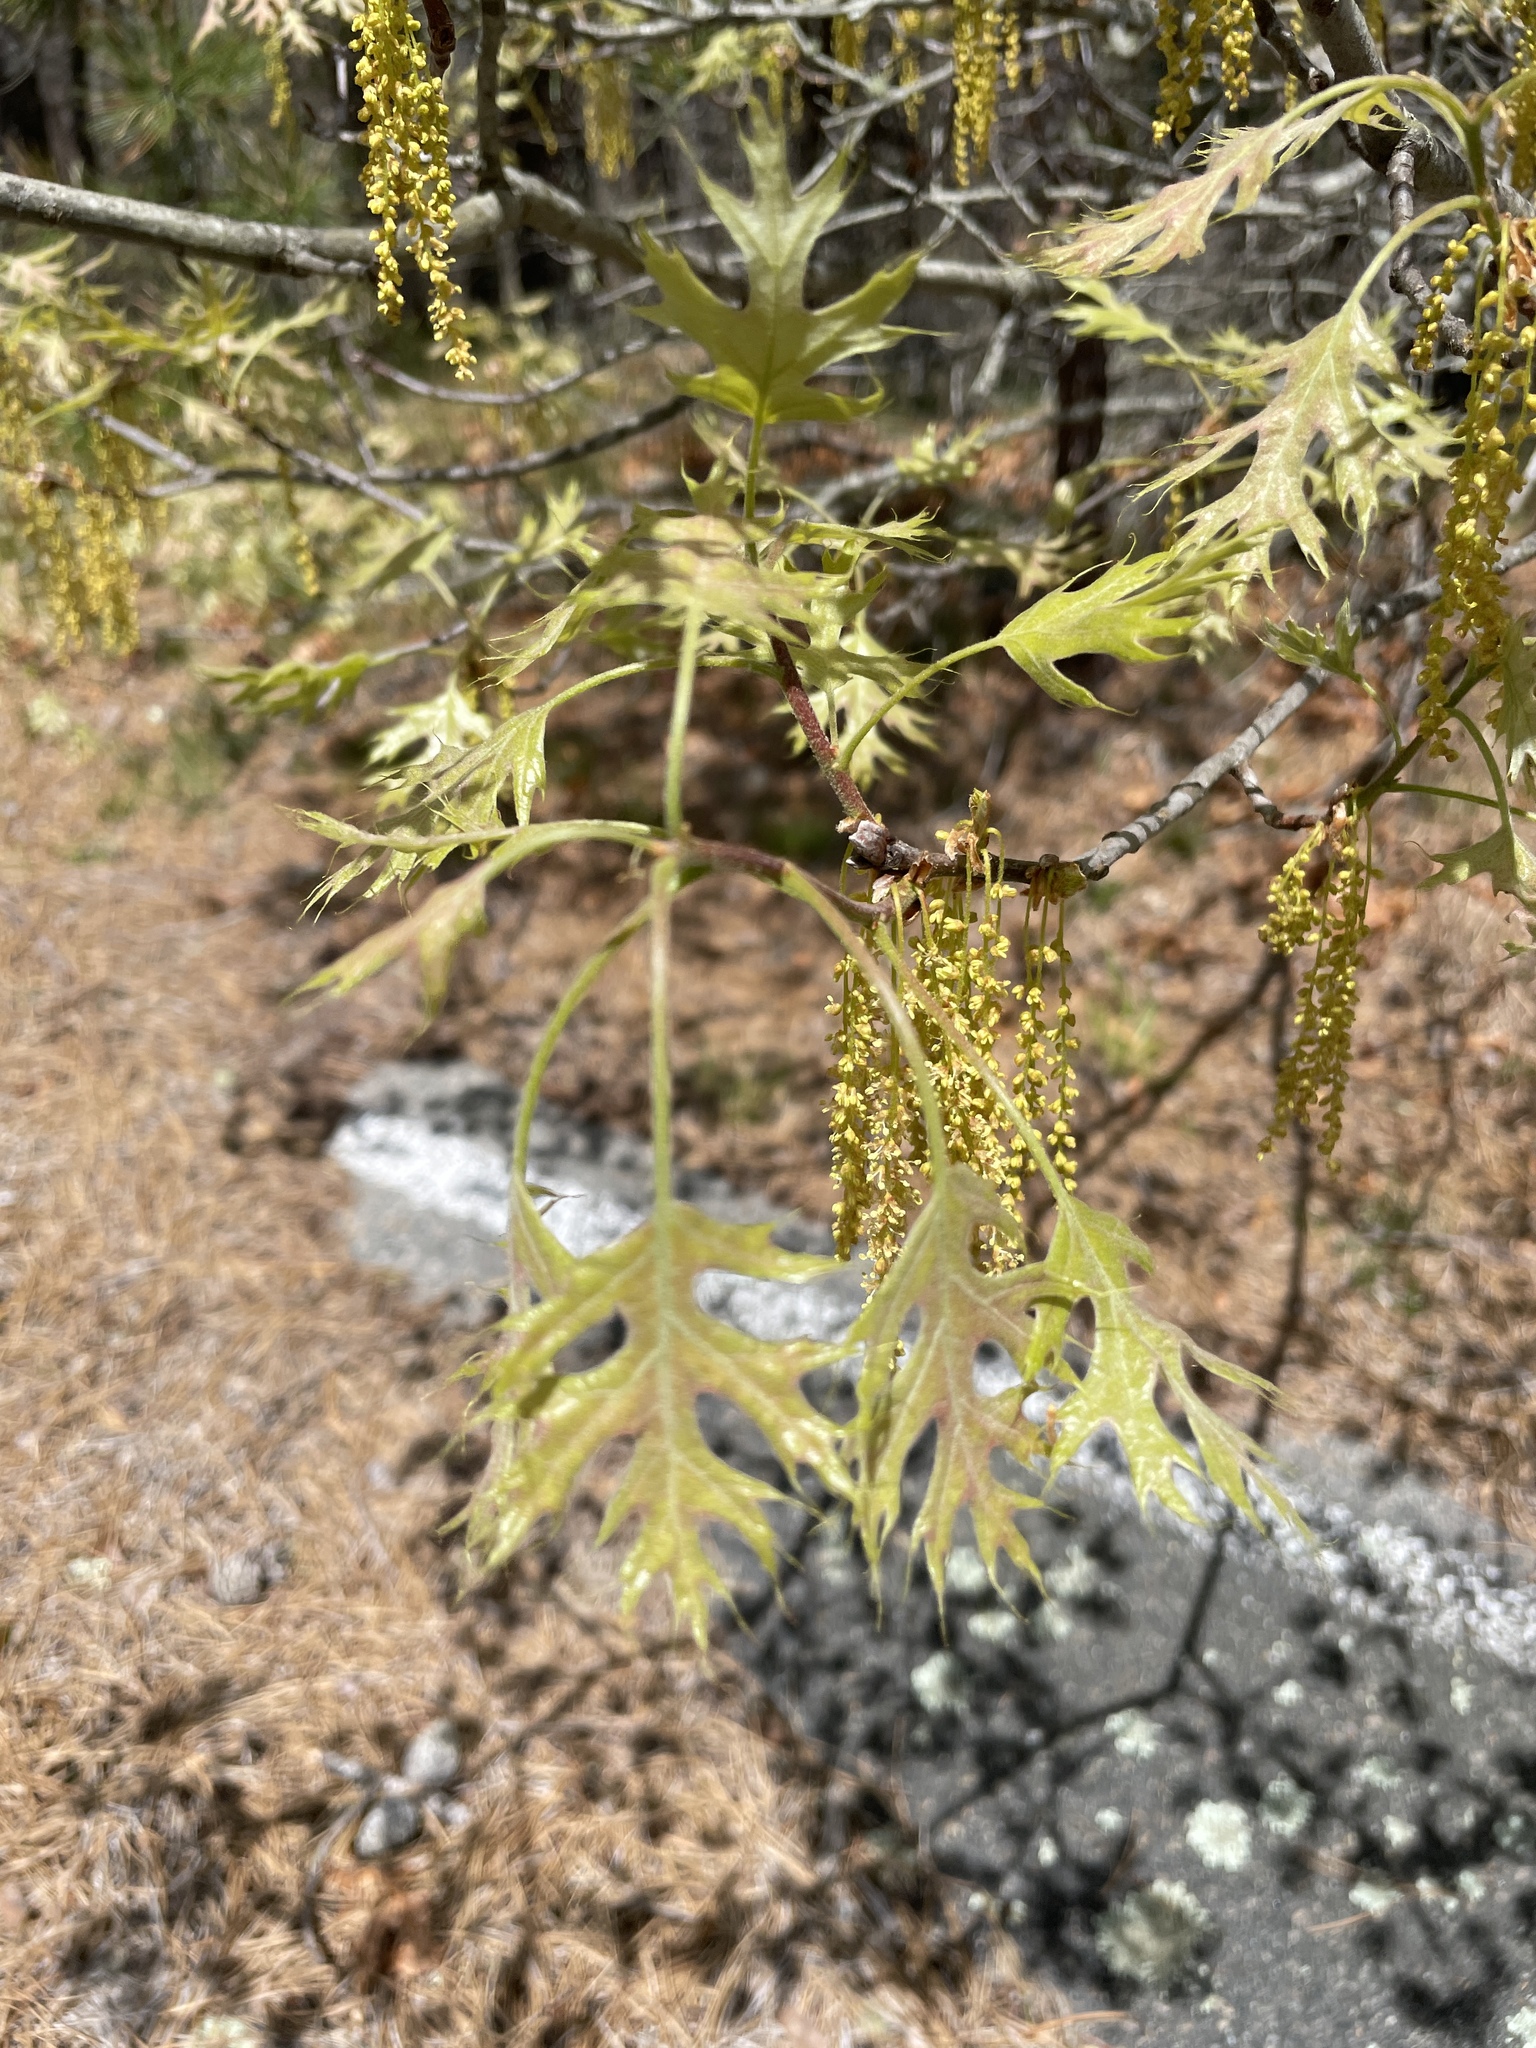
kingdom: Plantae
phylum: Tracheophyta
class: Magnoliopsida
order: Fagales
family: Fagaceae
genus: Quercus
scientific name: Quercus velutina
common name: Black oak
